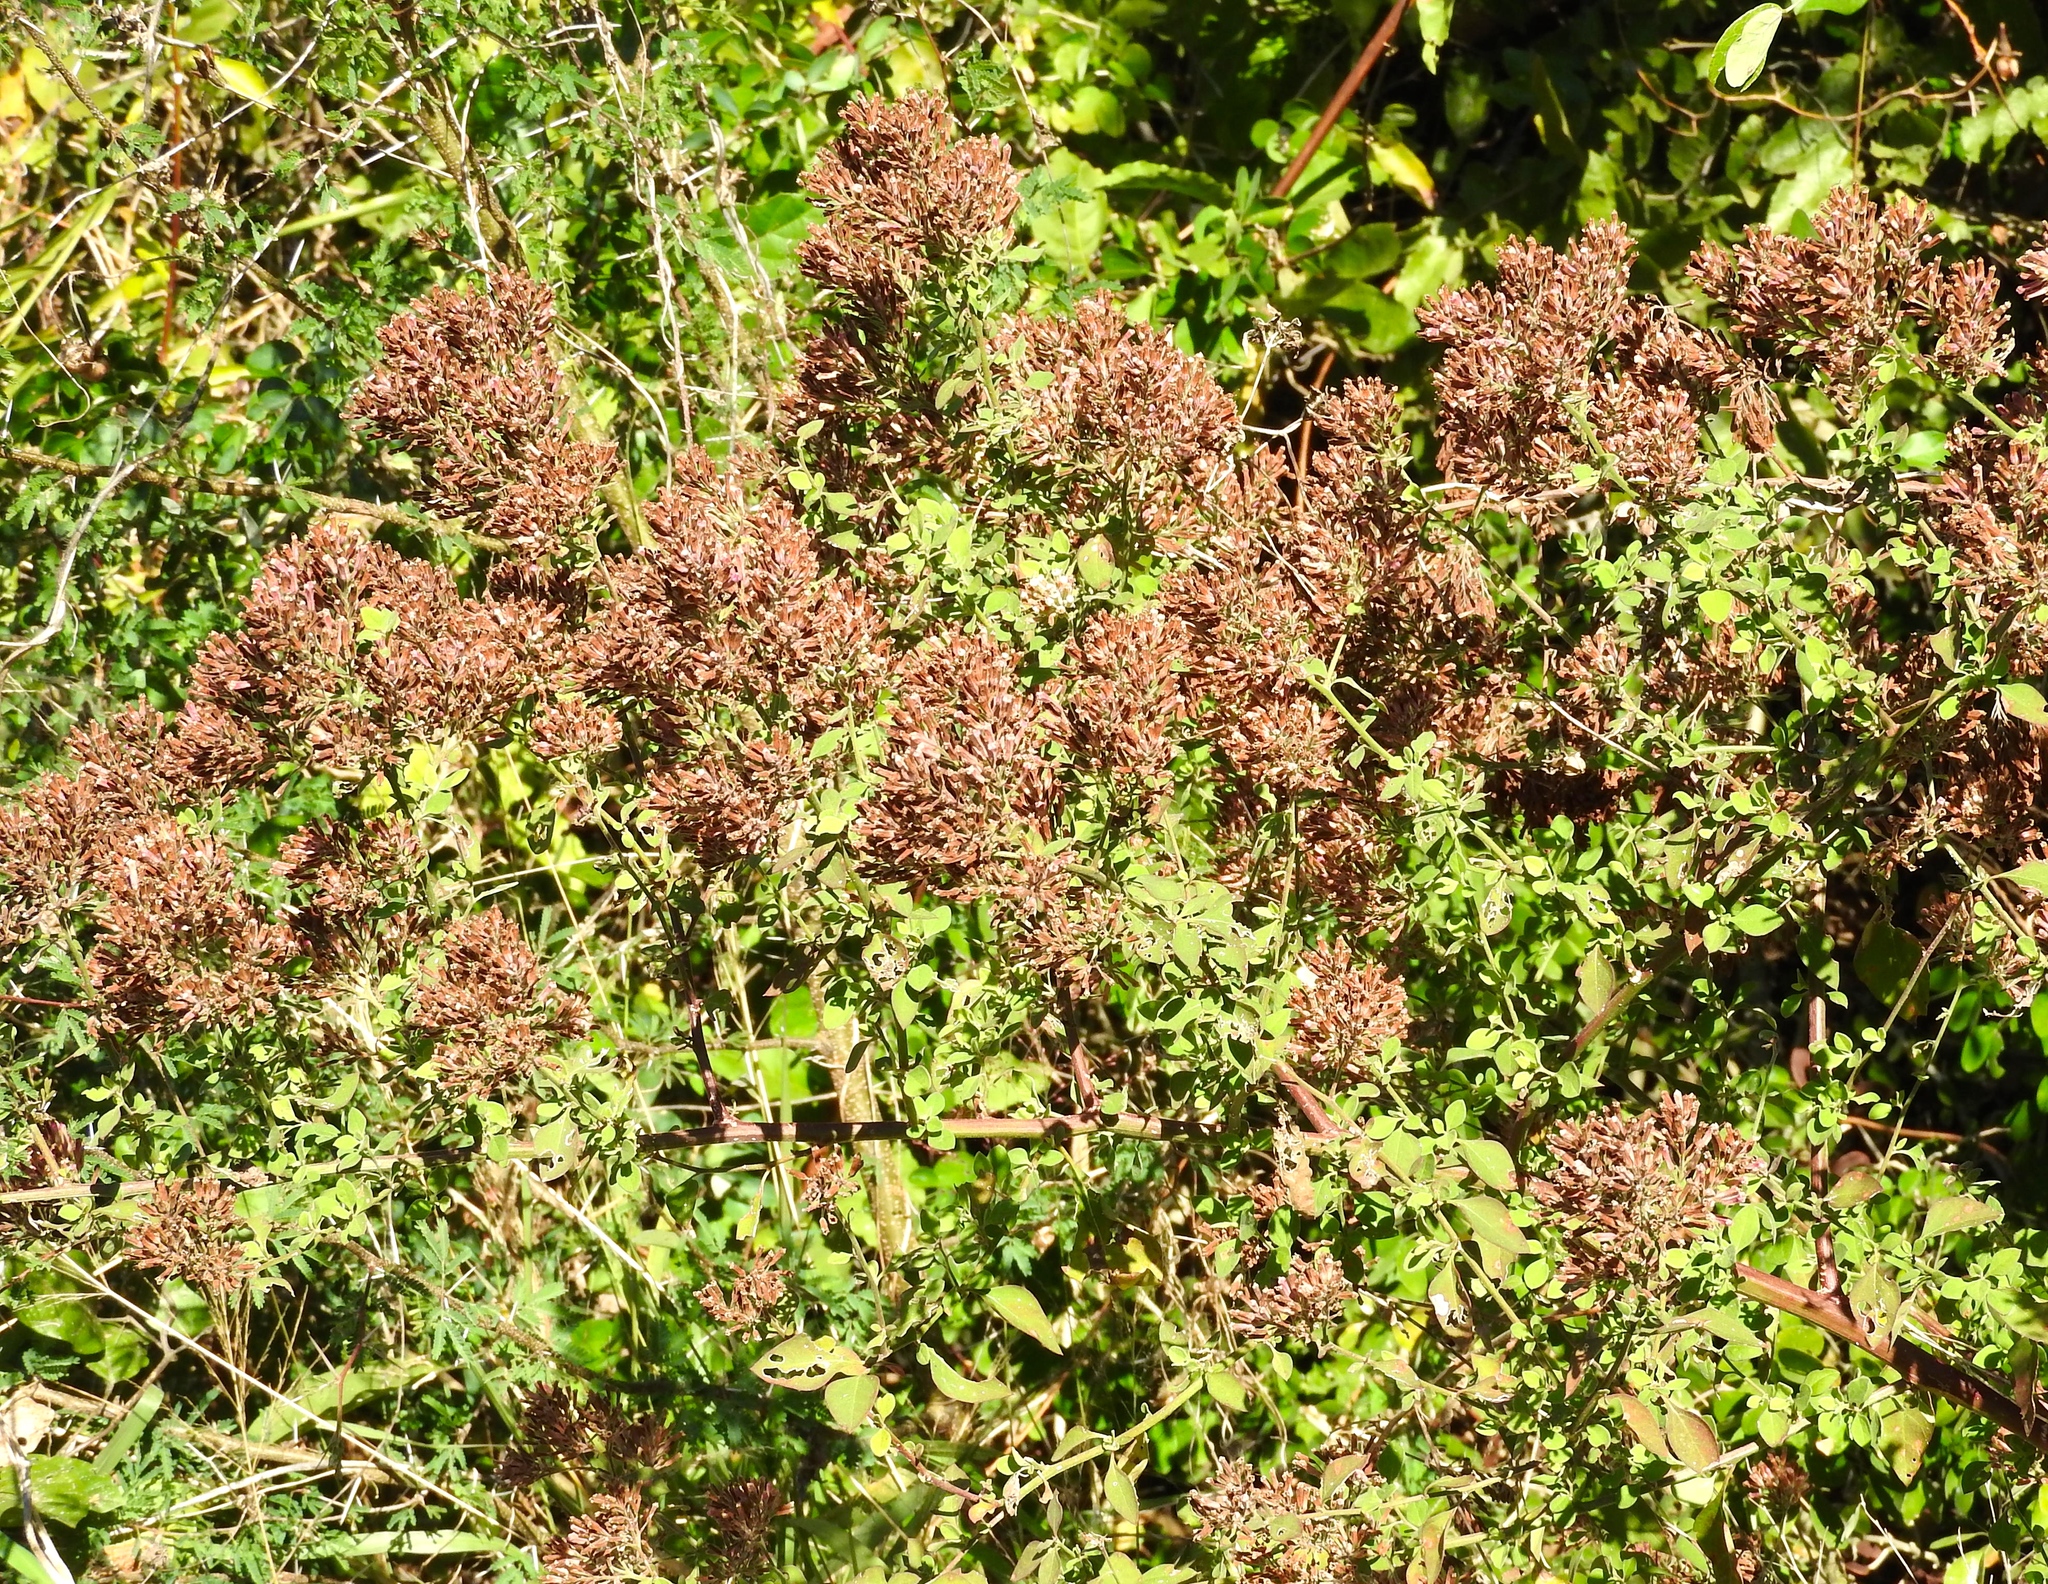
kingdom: Plantae
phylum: Tracheophyta
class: Magnoliopsida
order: Caryophyllales
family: Nyctaginaceae
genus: Salpianthus
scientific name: Salpianthus arenarius
